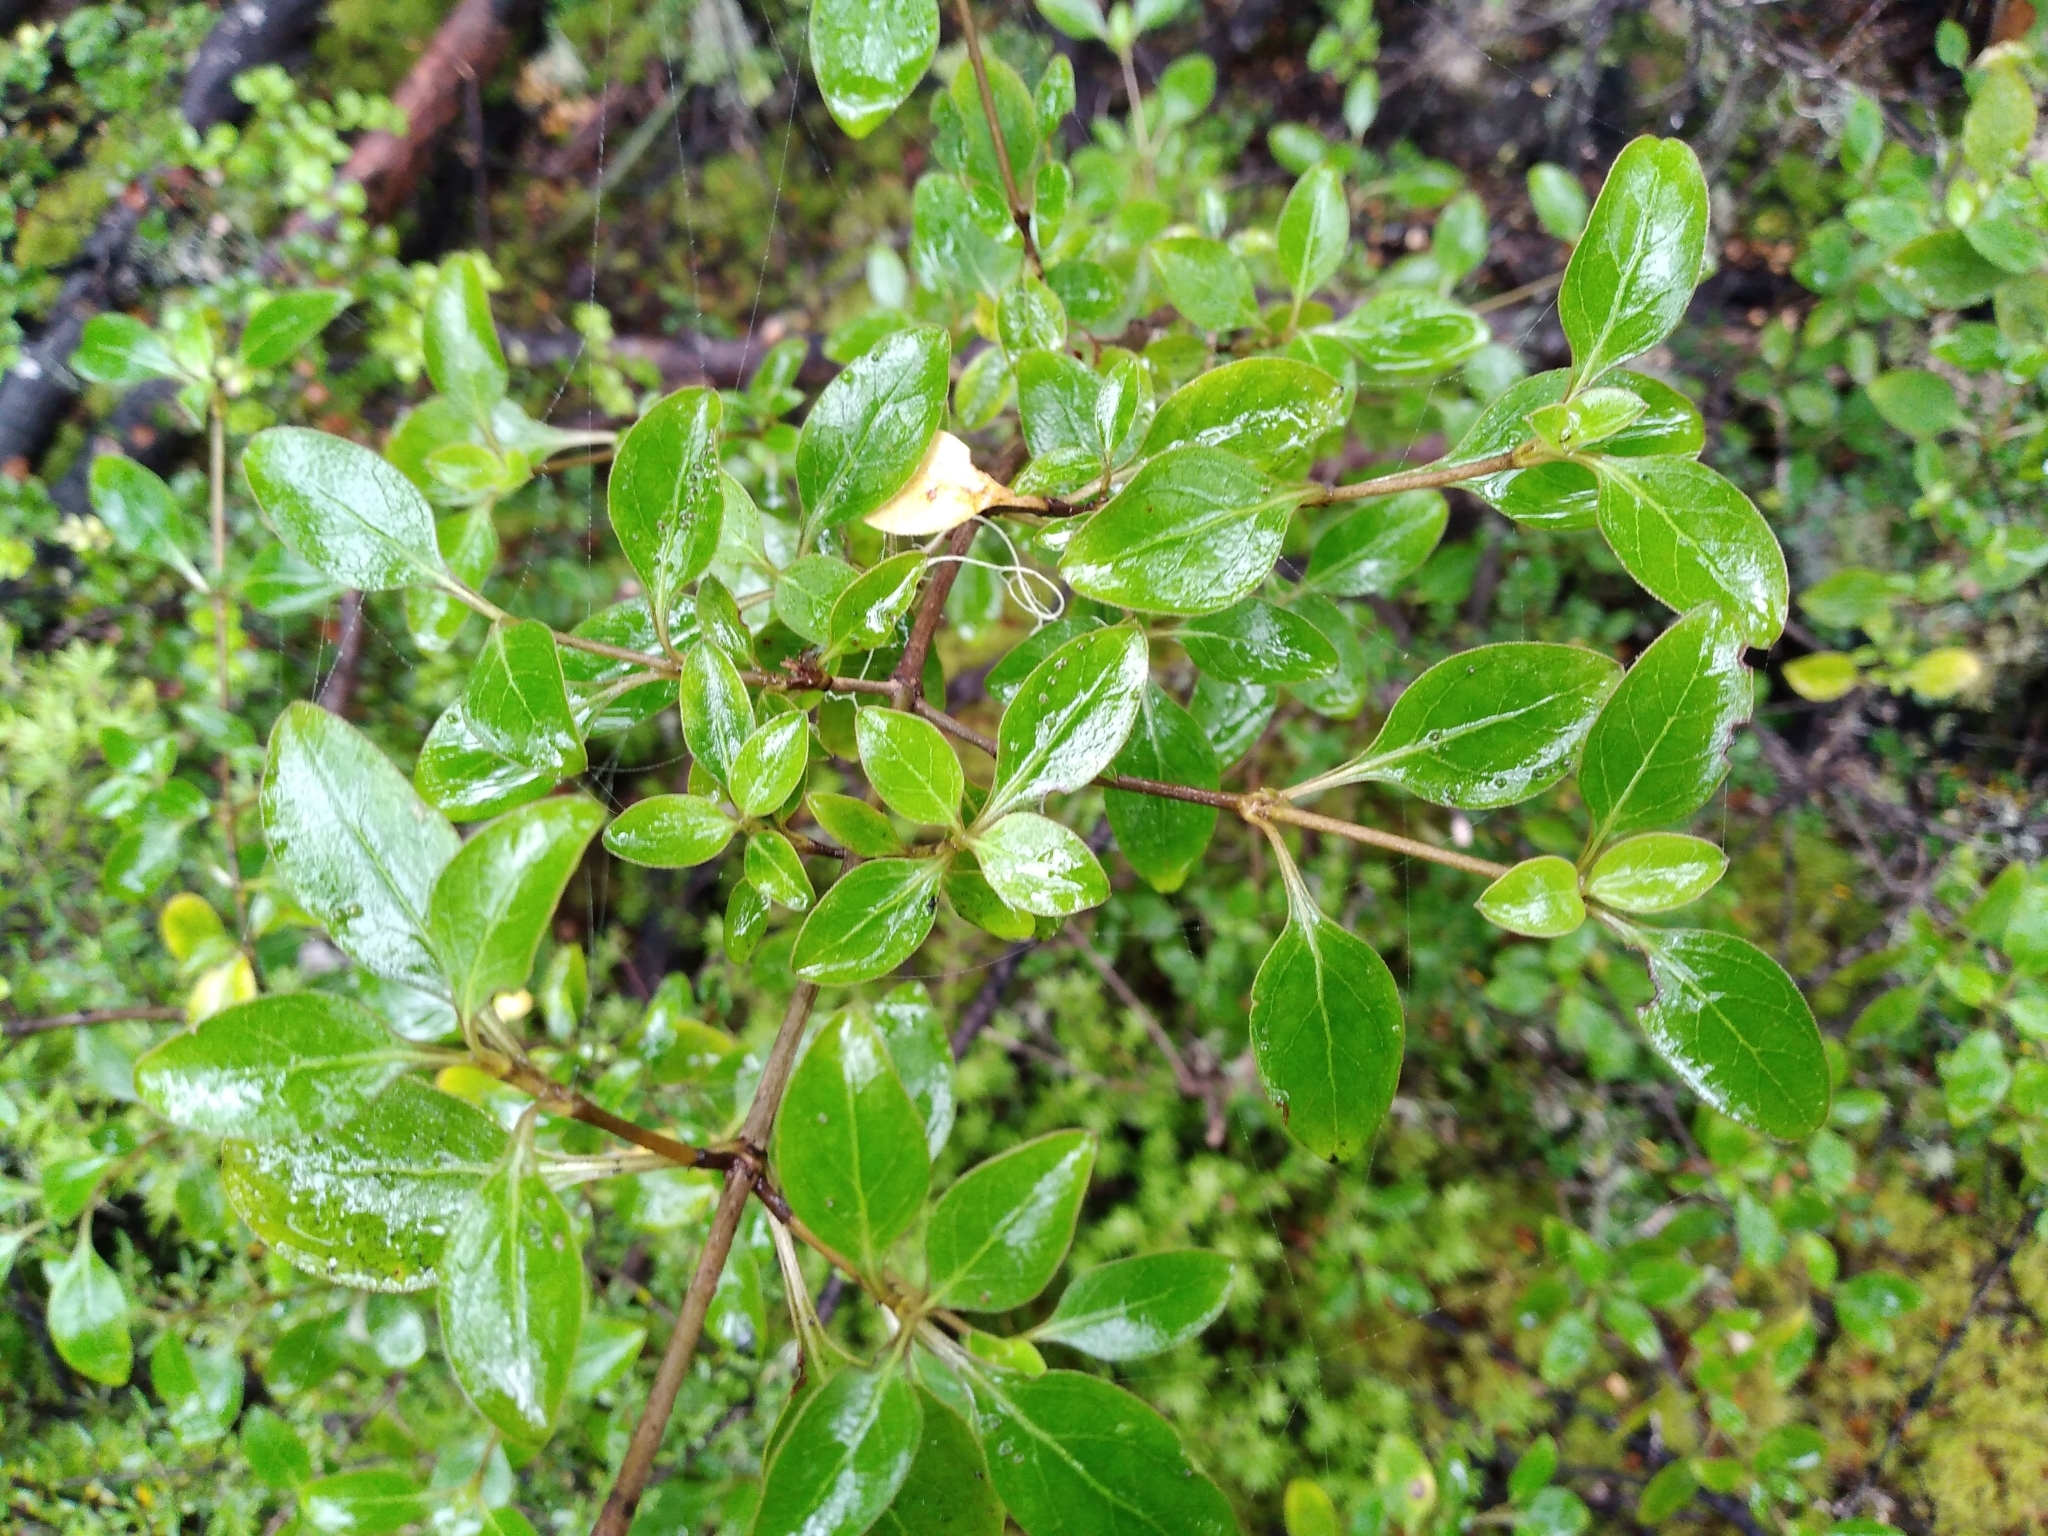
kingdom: Plantae
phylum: Tracheophyta
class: Magnoliopsida
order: Gentianales
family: Rubiaceae
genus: Coprosma
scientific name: Coprosma foetidissima
